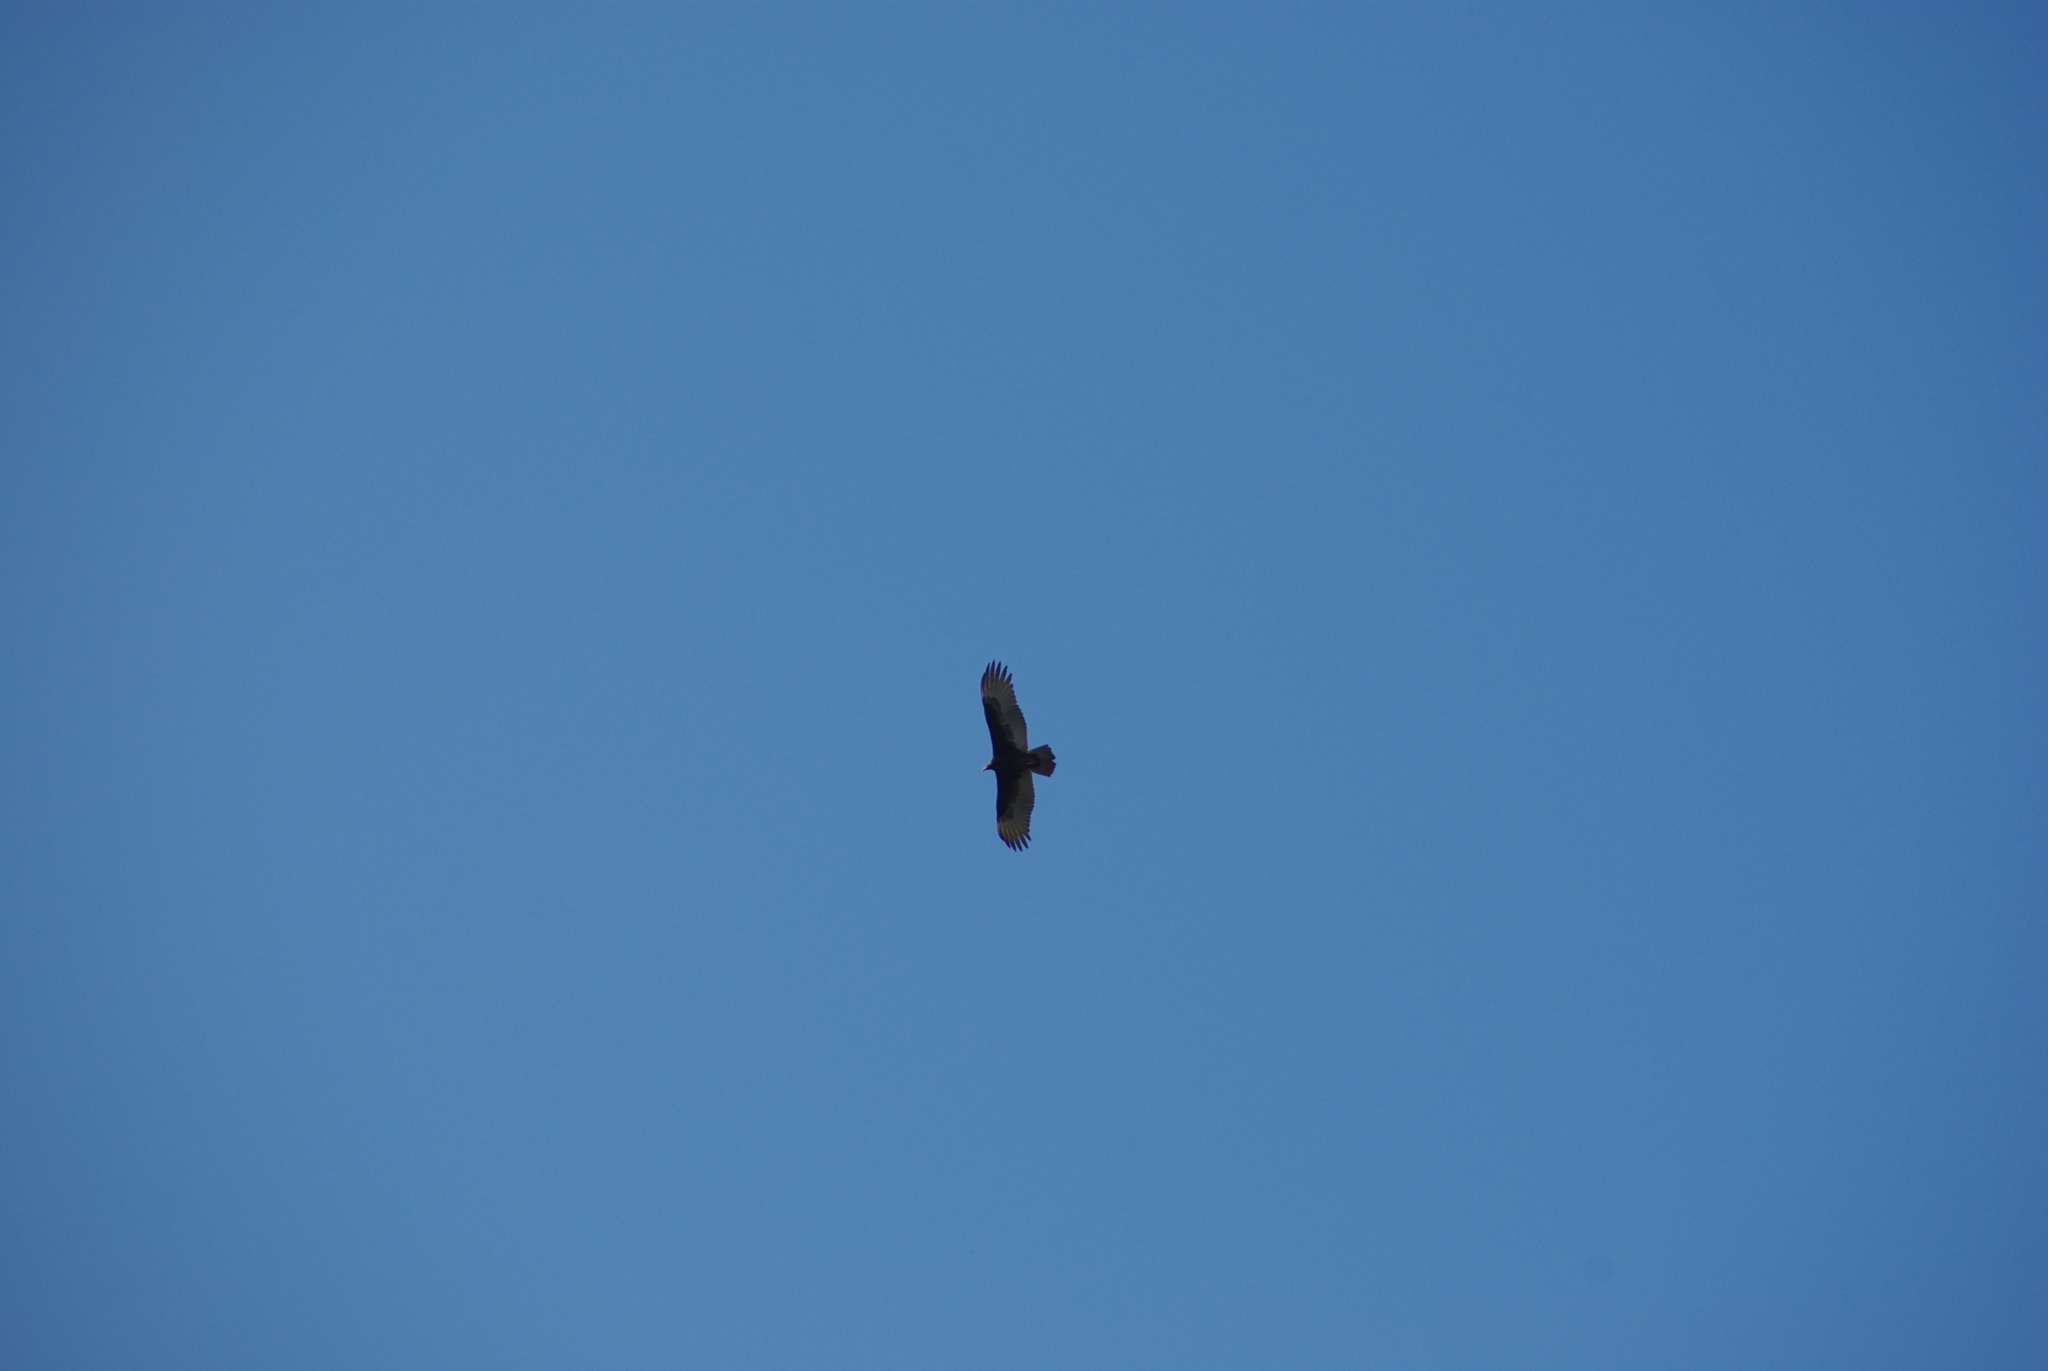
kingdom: Animalia
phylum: Chordata
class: Aves
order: Accipitriformes
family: Cathartidae
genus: Cathartes
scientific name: Cathartes aura
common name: Turkey vulture
